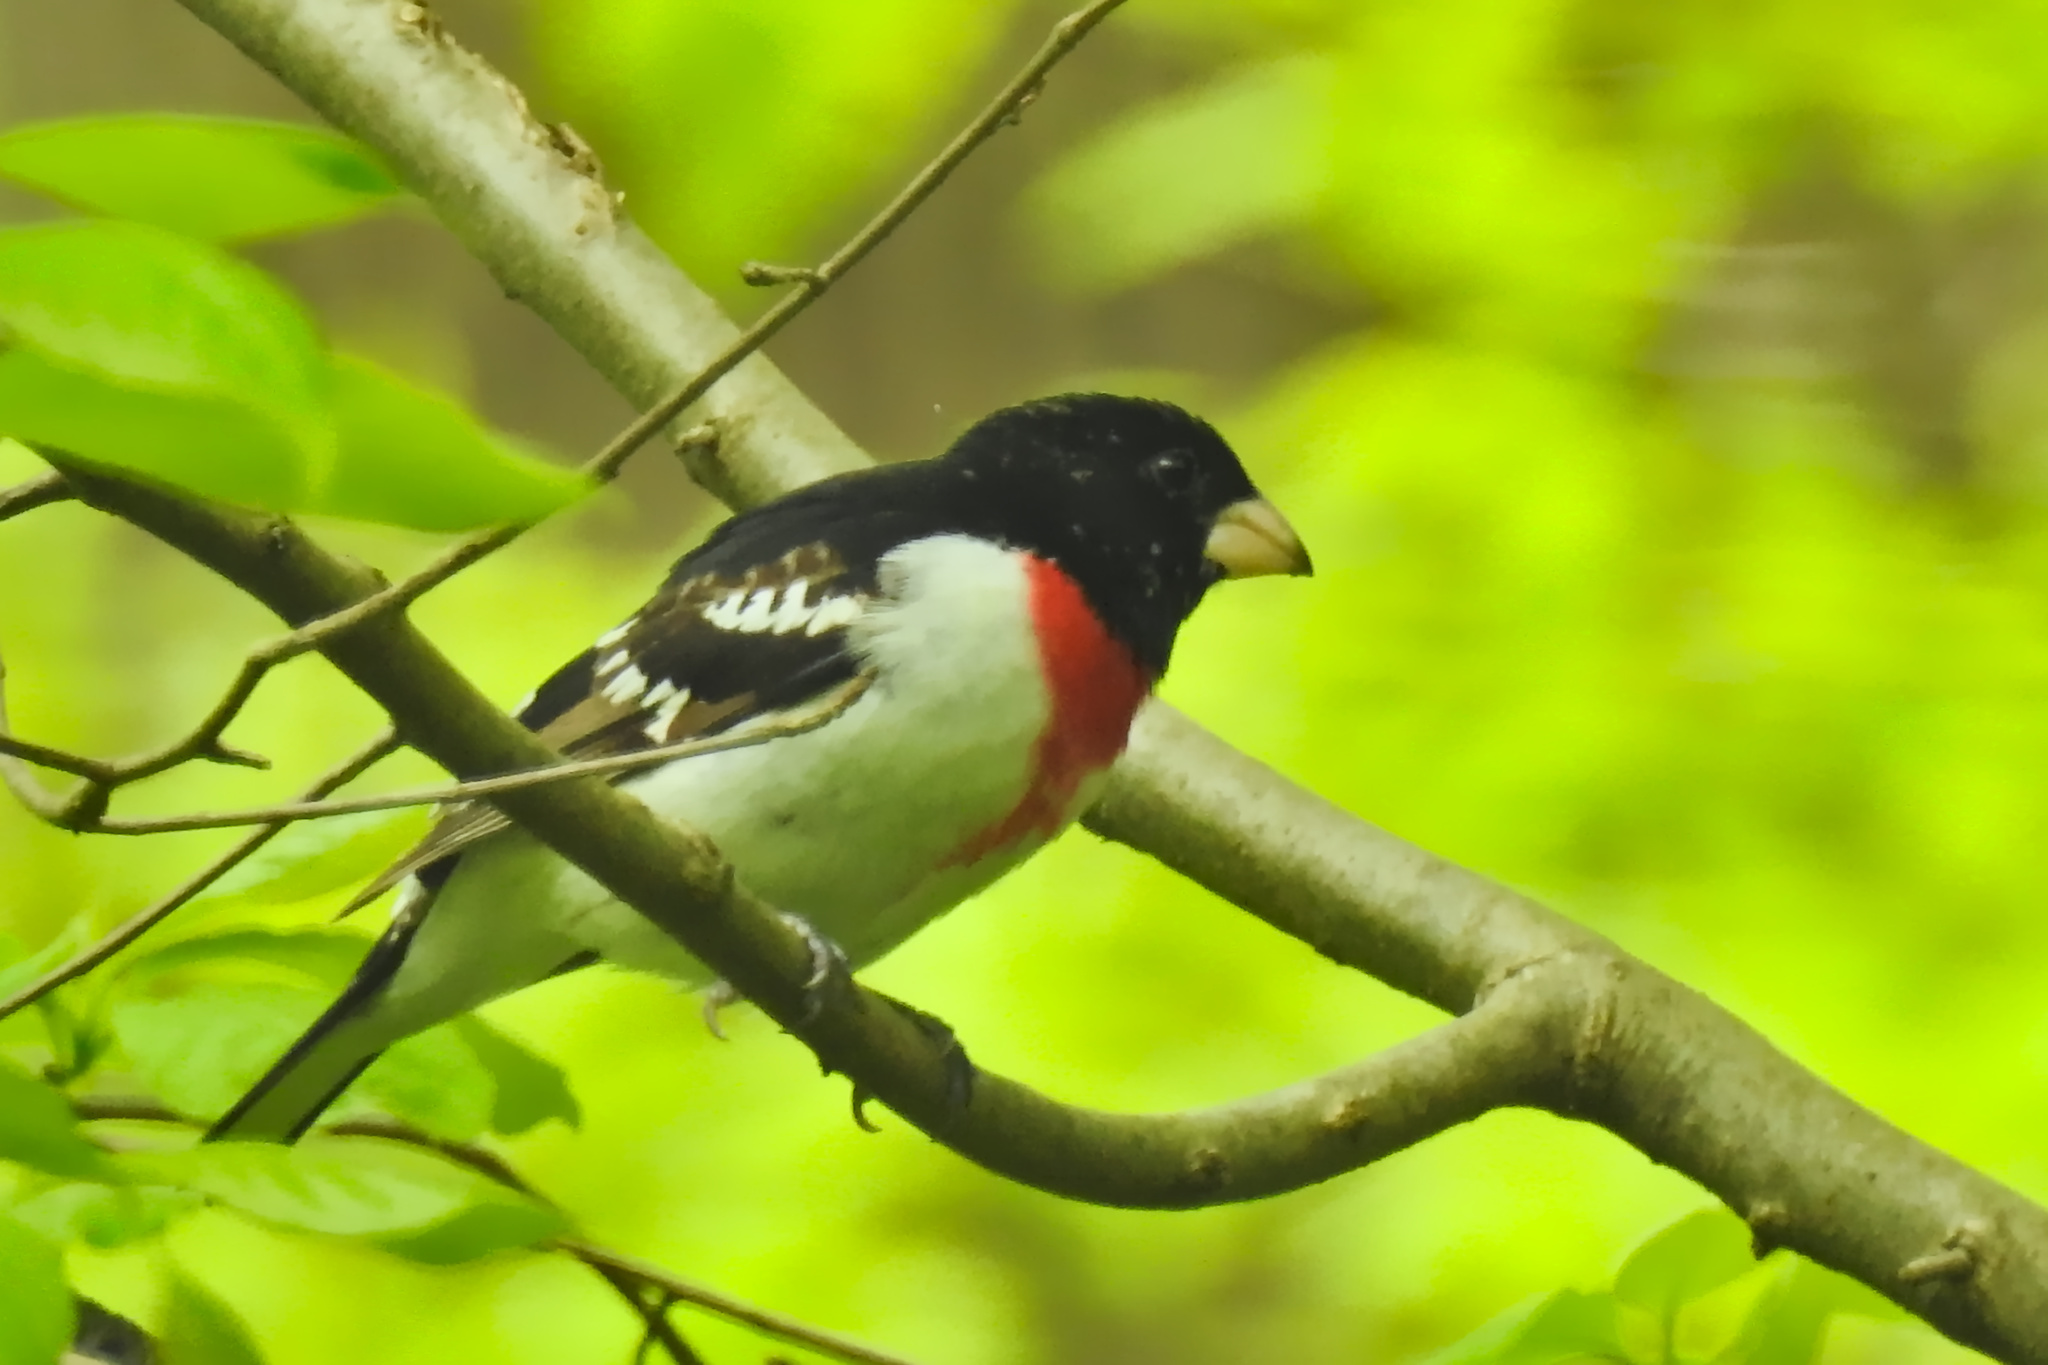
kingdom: Animalia
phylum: Chordata
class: Aves
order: Passeriformes
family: Cardinalidae
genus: Pheucticus
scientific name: Pheucticus ludovicianus
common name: Rose-breasted grosbeak
